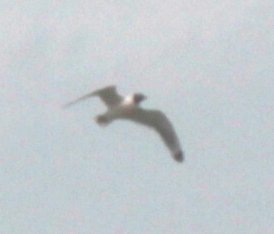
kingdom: Animalia
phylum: Chordata
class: Aves
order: Charadriiformes
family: Laridae
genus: Leucophaeus
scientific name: Leucophaeus pipixcan
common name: Franklin's gull
